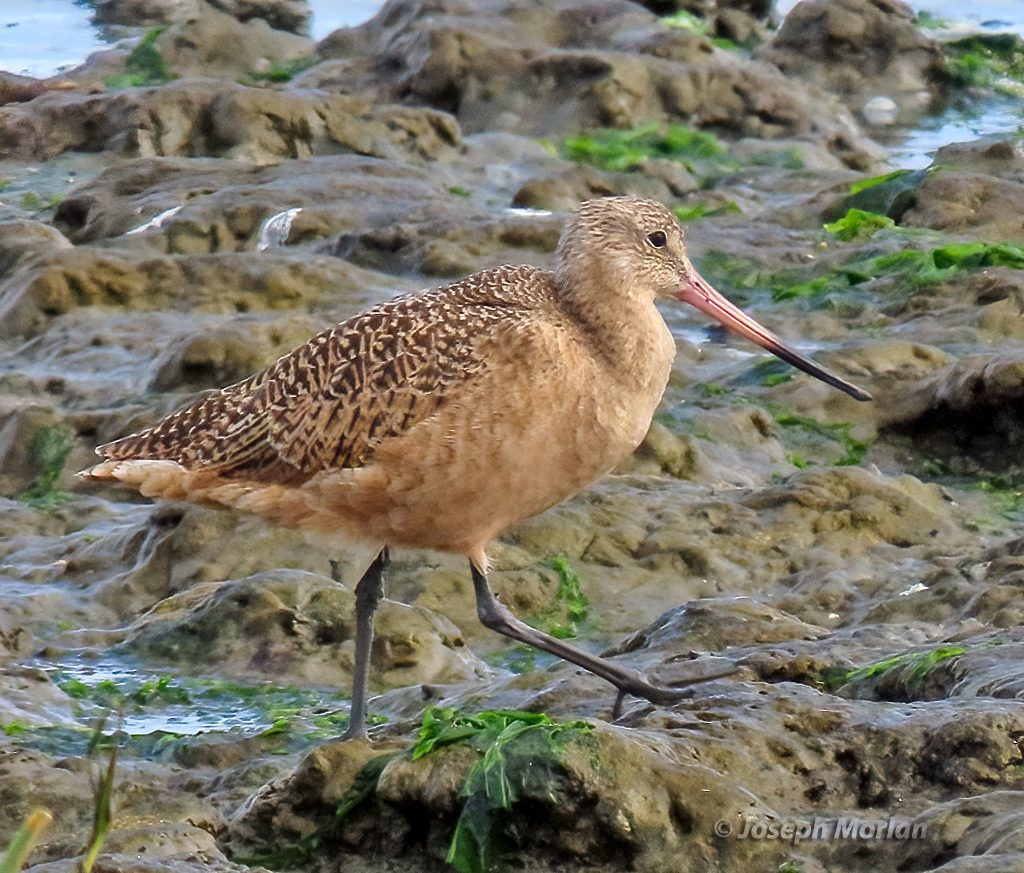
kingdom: Animalia
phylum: Chordata
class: Aves
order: Charadriiformes
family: Scolopacidae
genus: Limosa
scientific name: Limosa fedoa
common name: Marbled godwit
